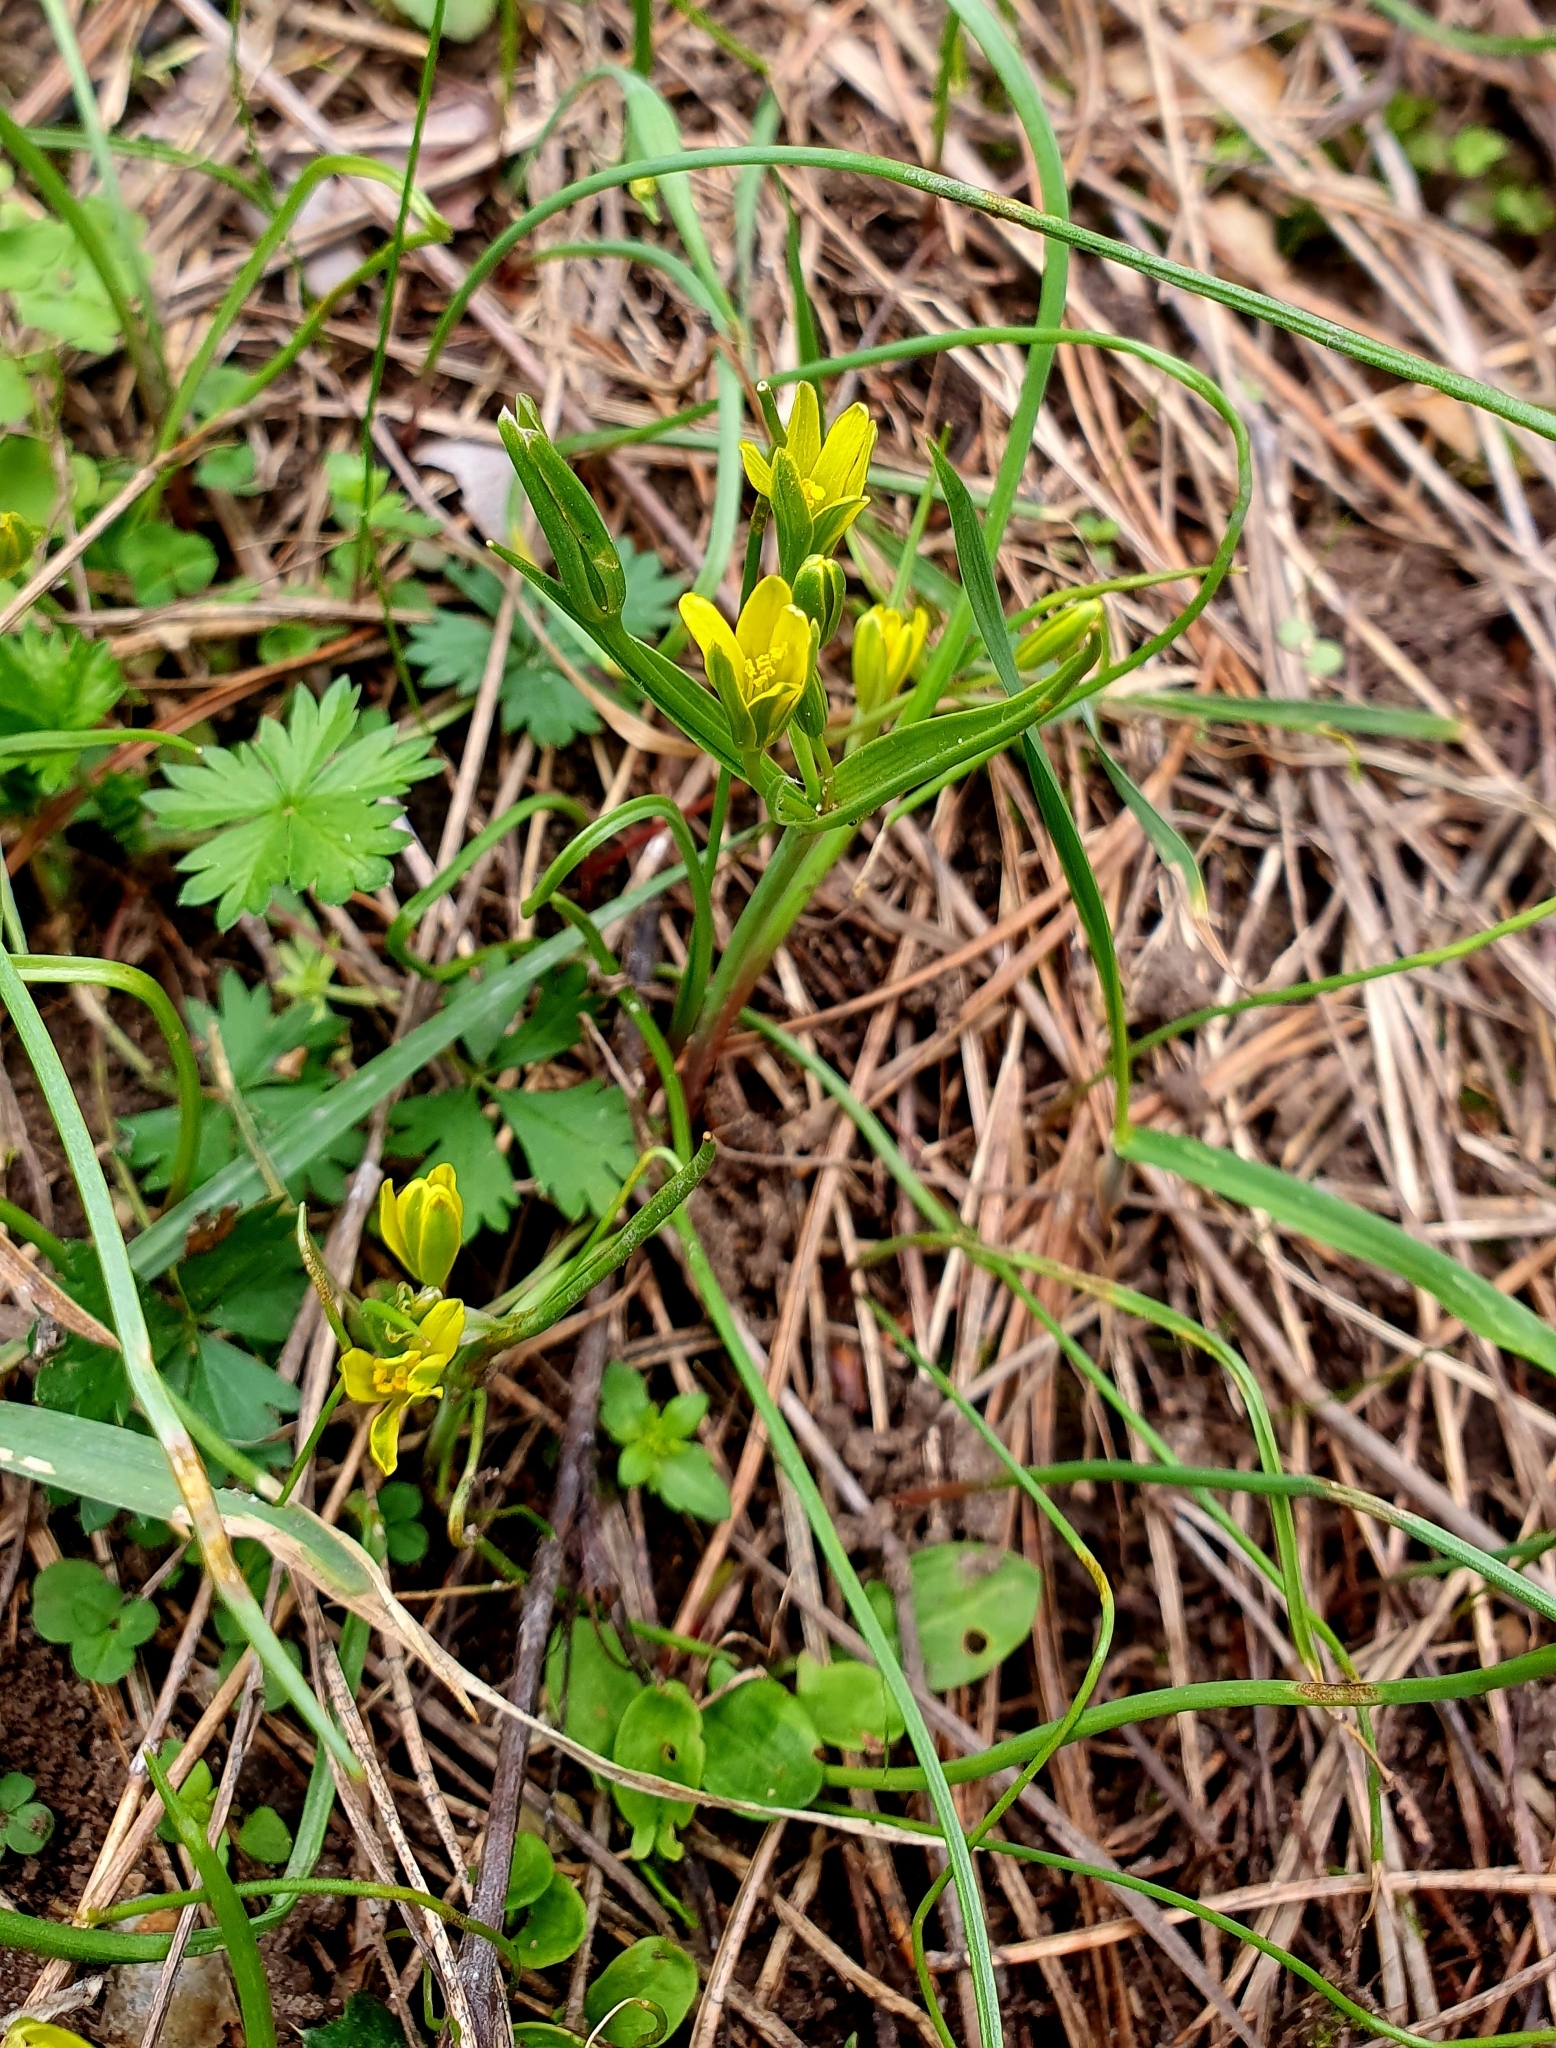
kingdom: Plantae
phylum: Tracheophyta
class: Liliopsida
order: Liliales
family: Liliaceae
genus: Gagea
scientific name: Gagea fragifera
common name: Lily
